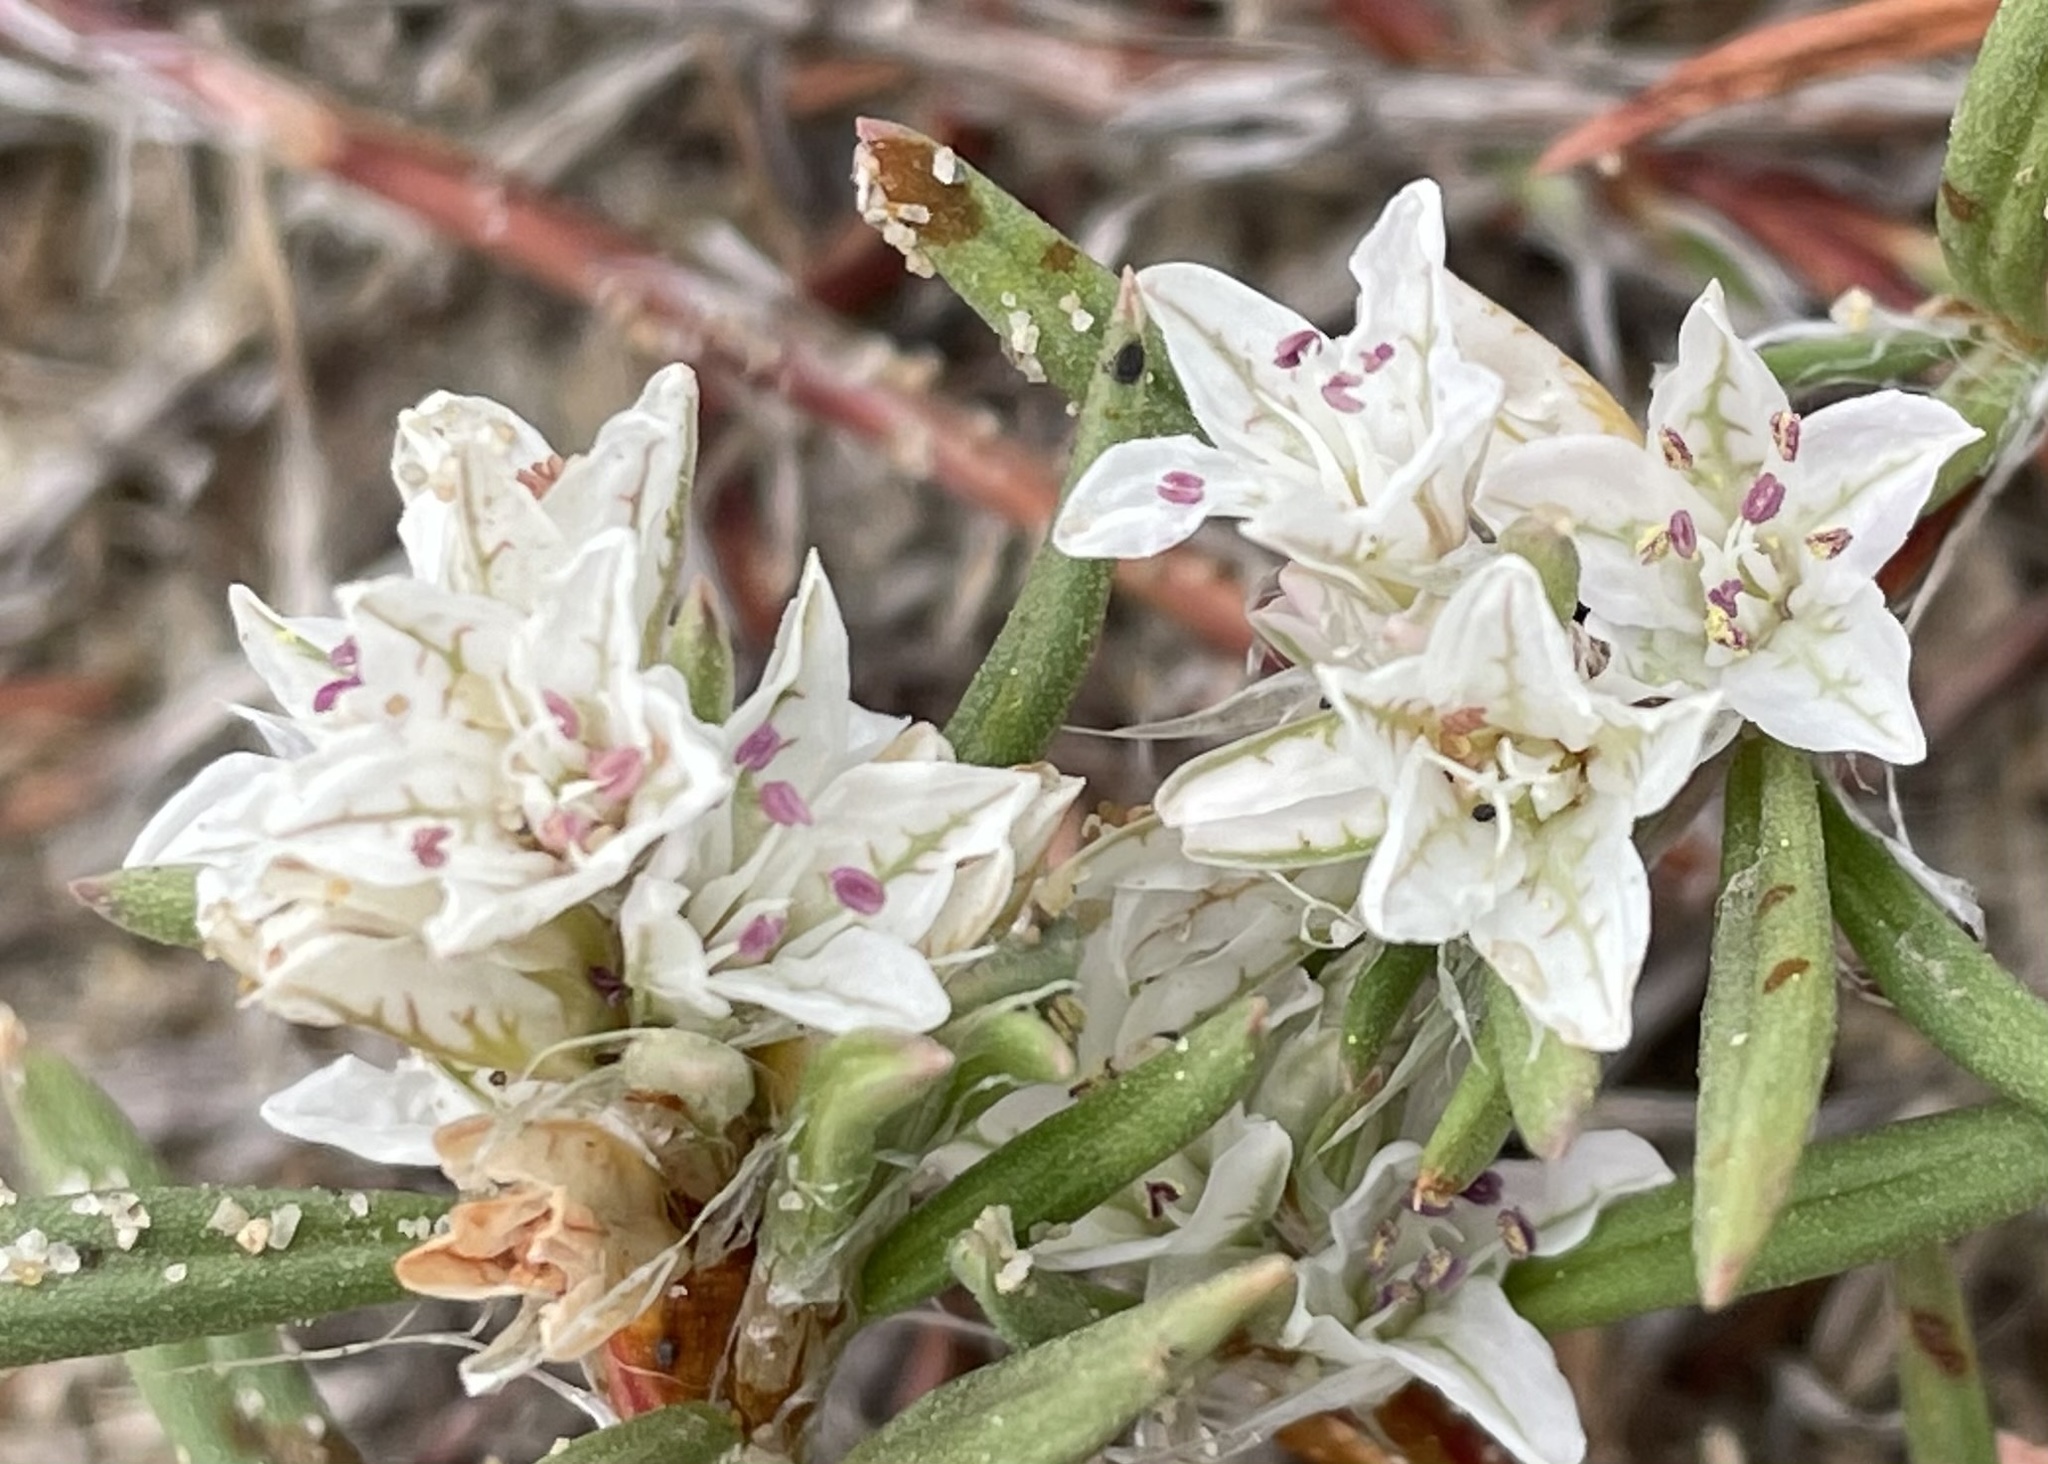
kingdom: Plantae
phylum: Tracheophyta
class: Magnoliopsida
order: Caryophyllales
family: Polygonaceae
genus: Polygonum
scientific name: Polygonum paronychia
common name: Dune knotweed
